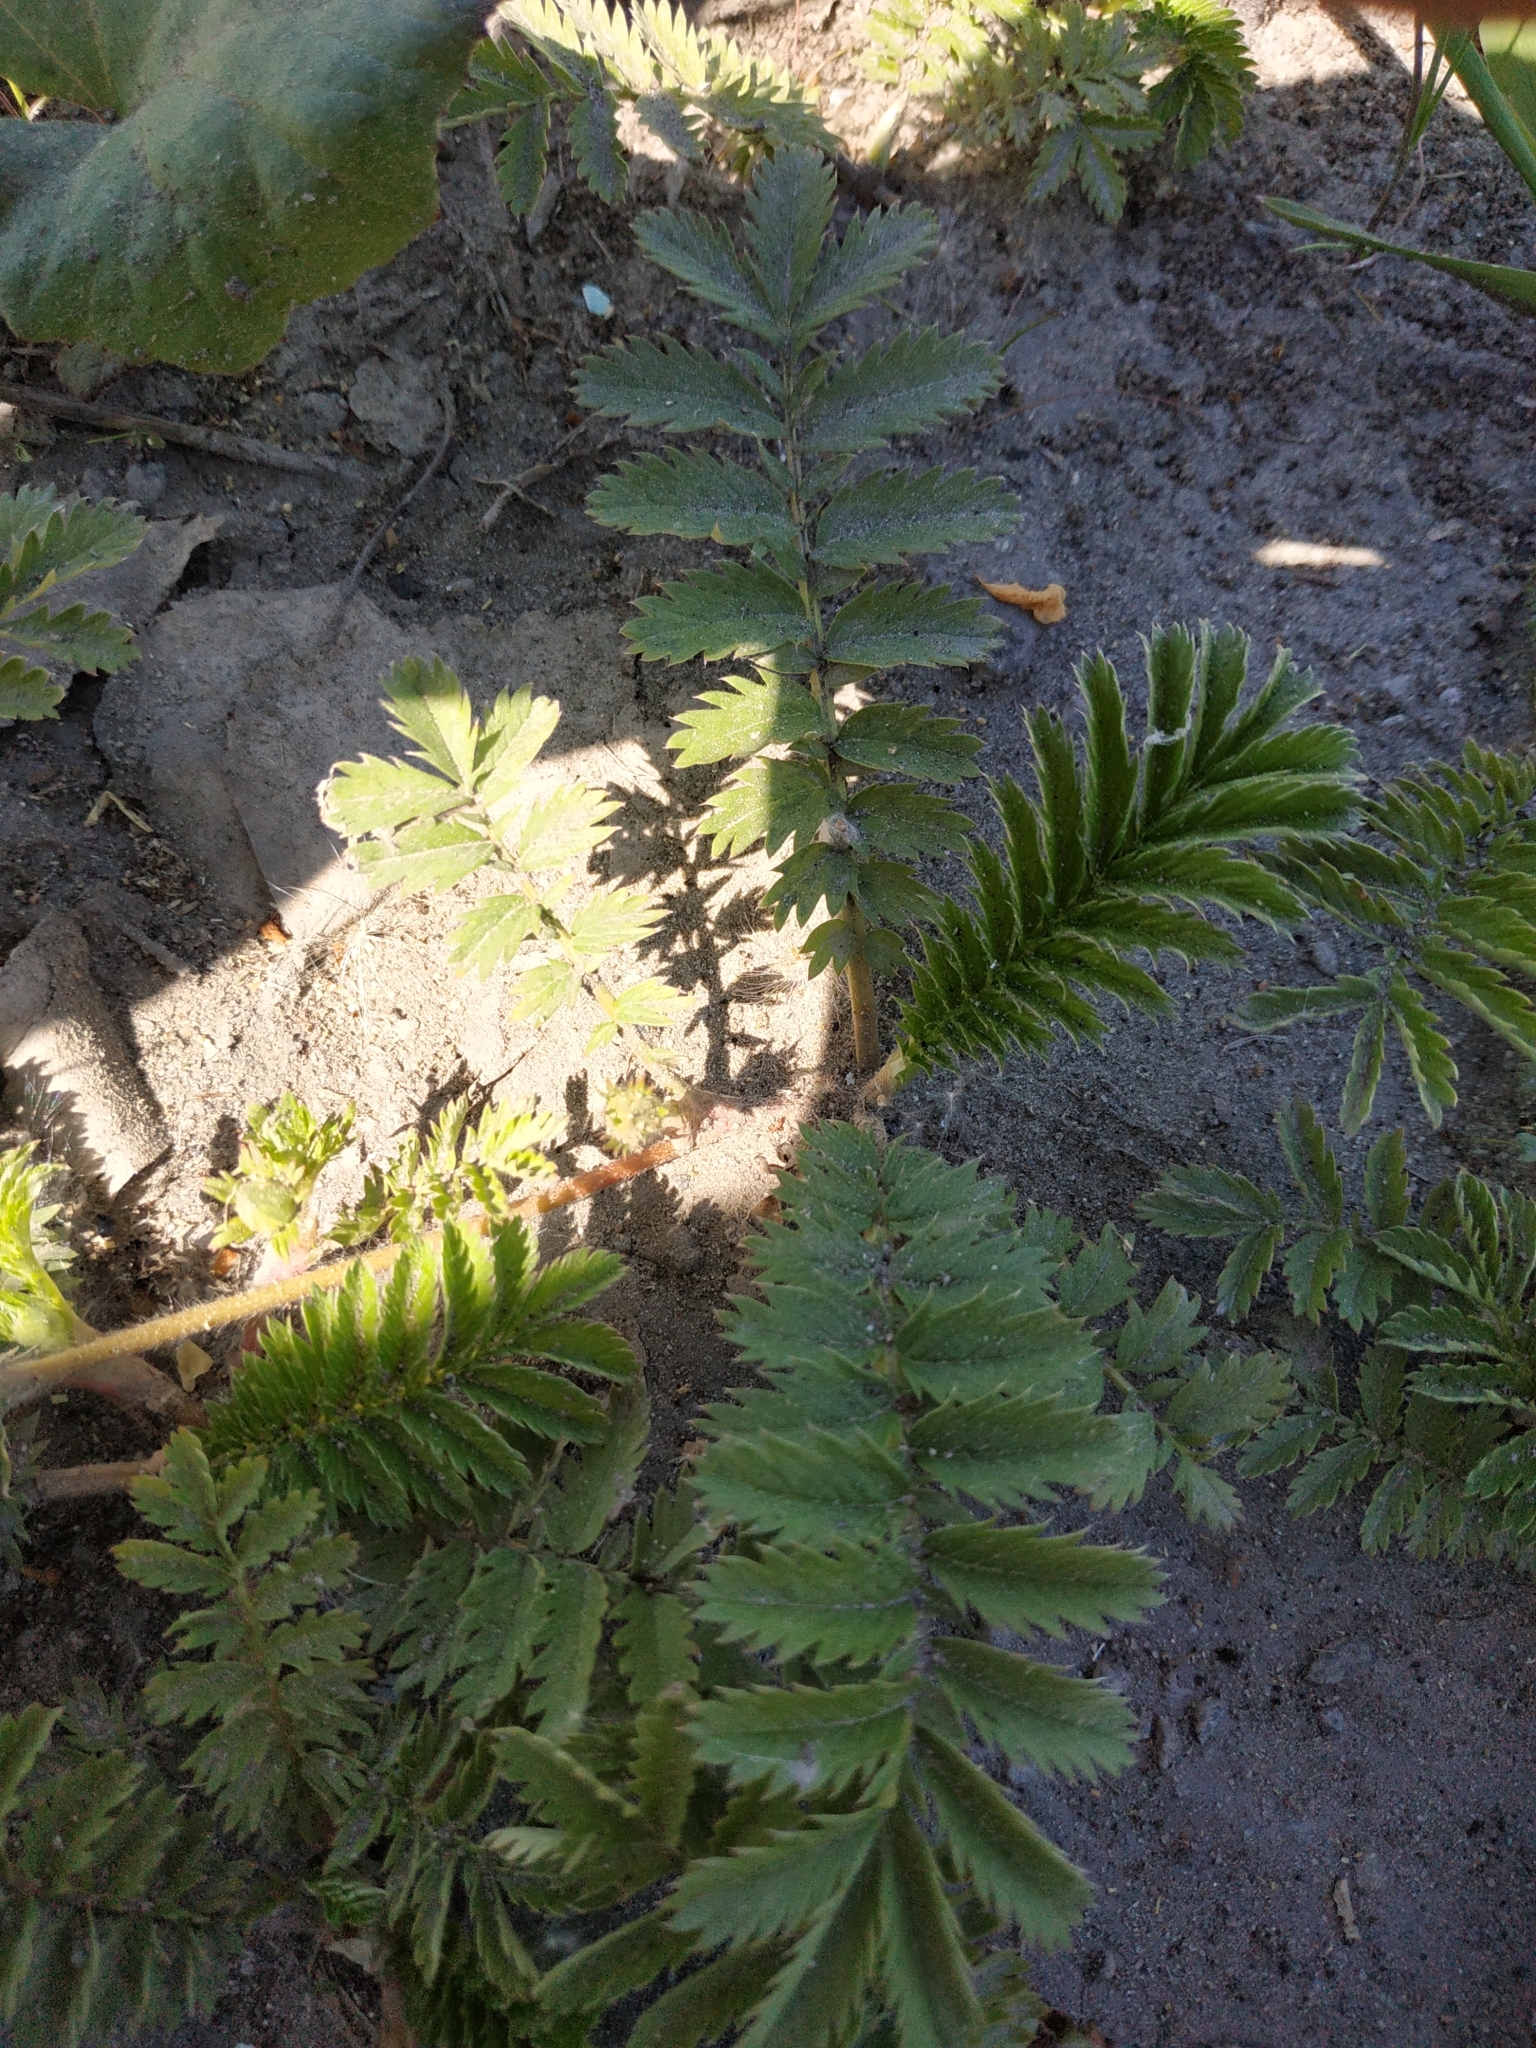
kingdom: Plantae
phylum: Tracheophyta
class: Magnoliopsida
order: Rosales
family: Rosaceae
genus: Argentina
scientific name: Argentina anserina
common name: Common silverweed
